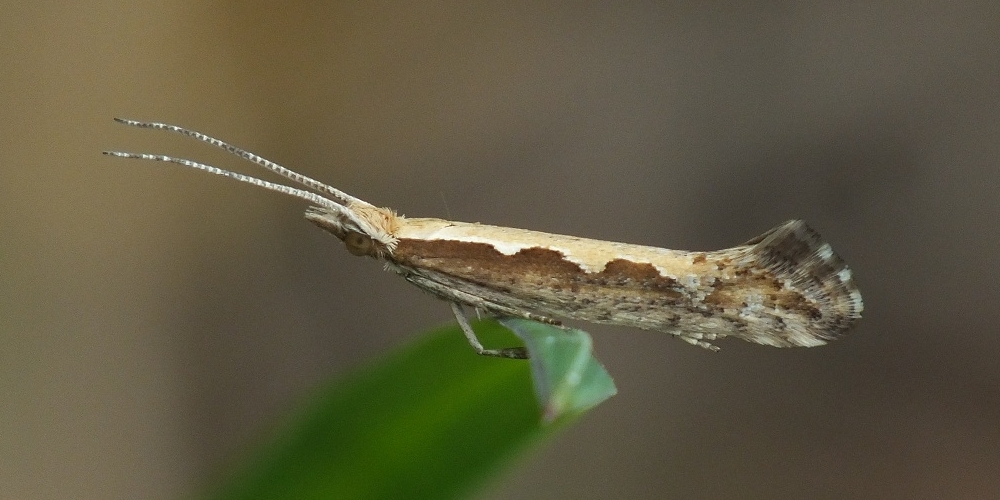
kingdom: Animalia
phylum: Arthropoda
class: Insecta
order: Lepidoptera
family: Plutellidae
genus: Plutella
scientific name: Plutella xylostella
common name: Diamond-back moth
